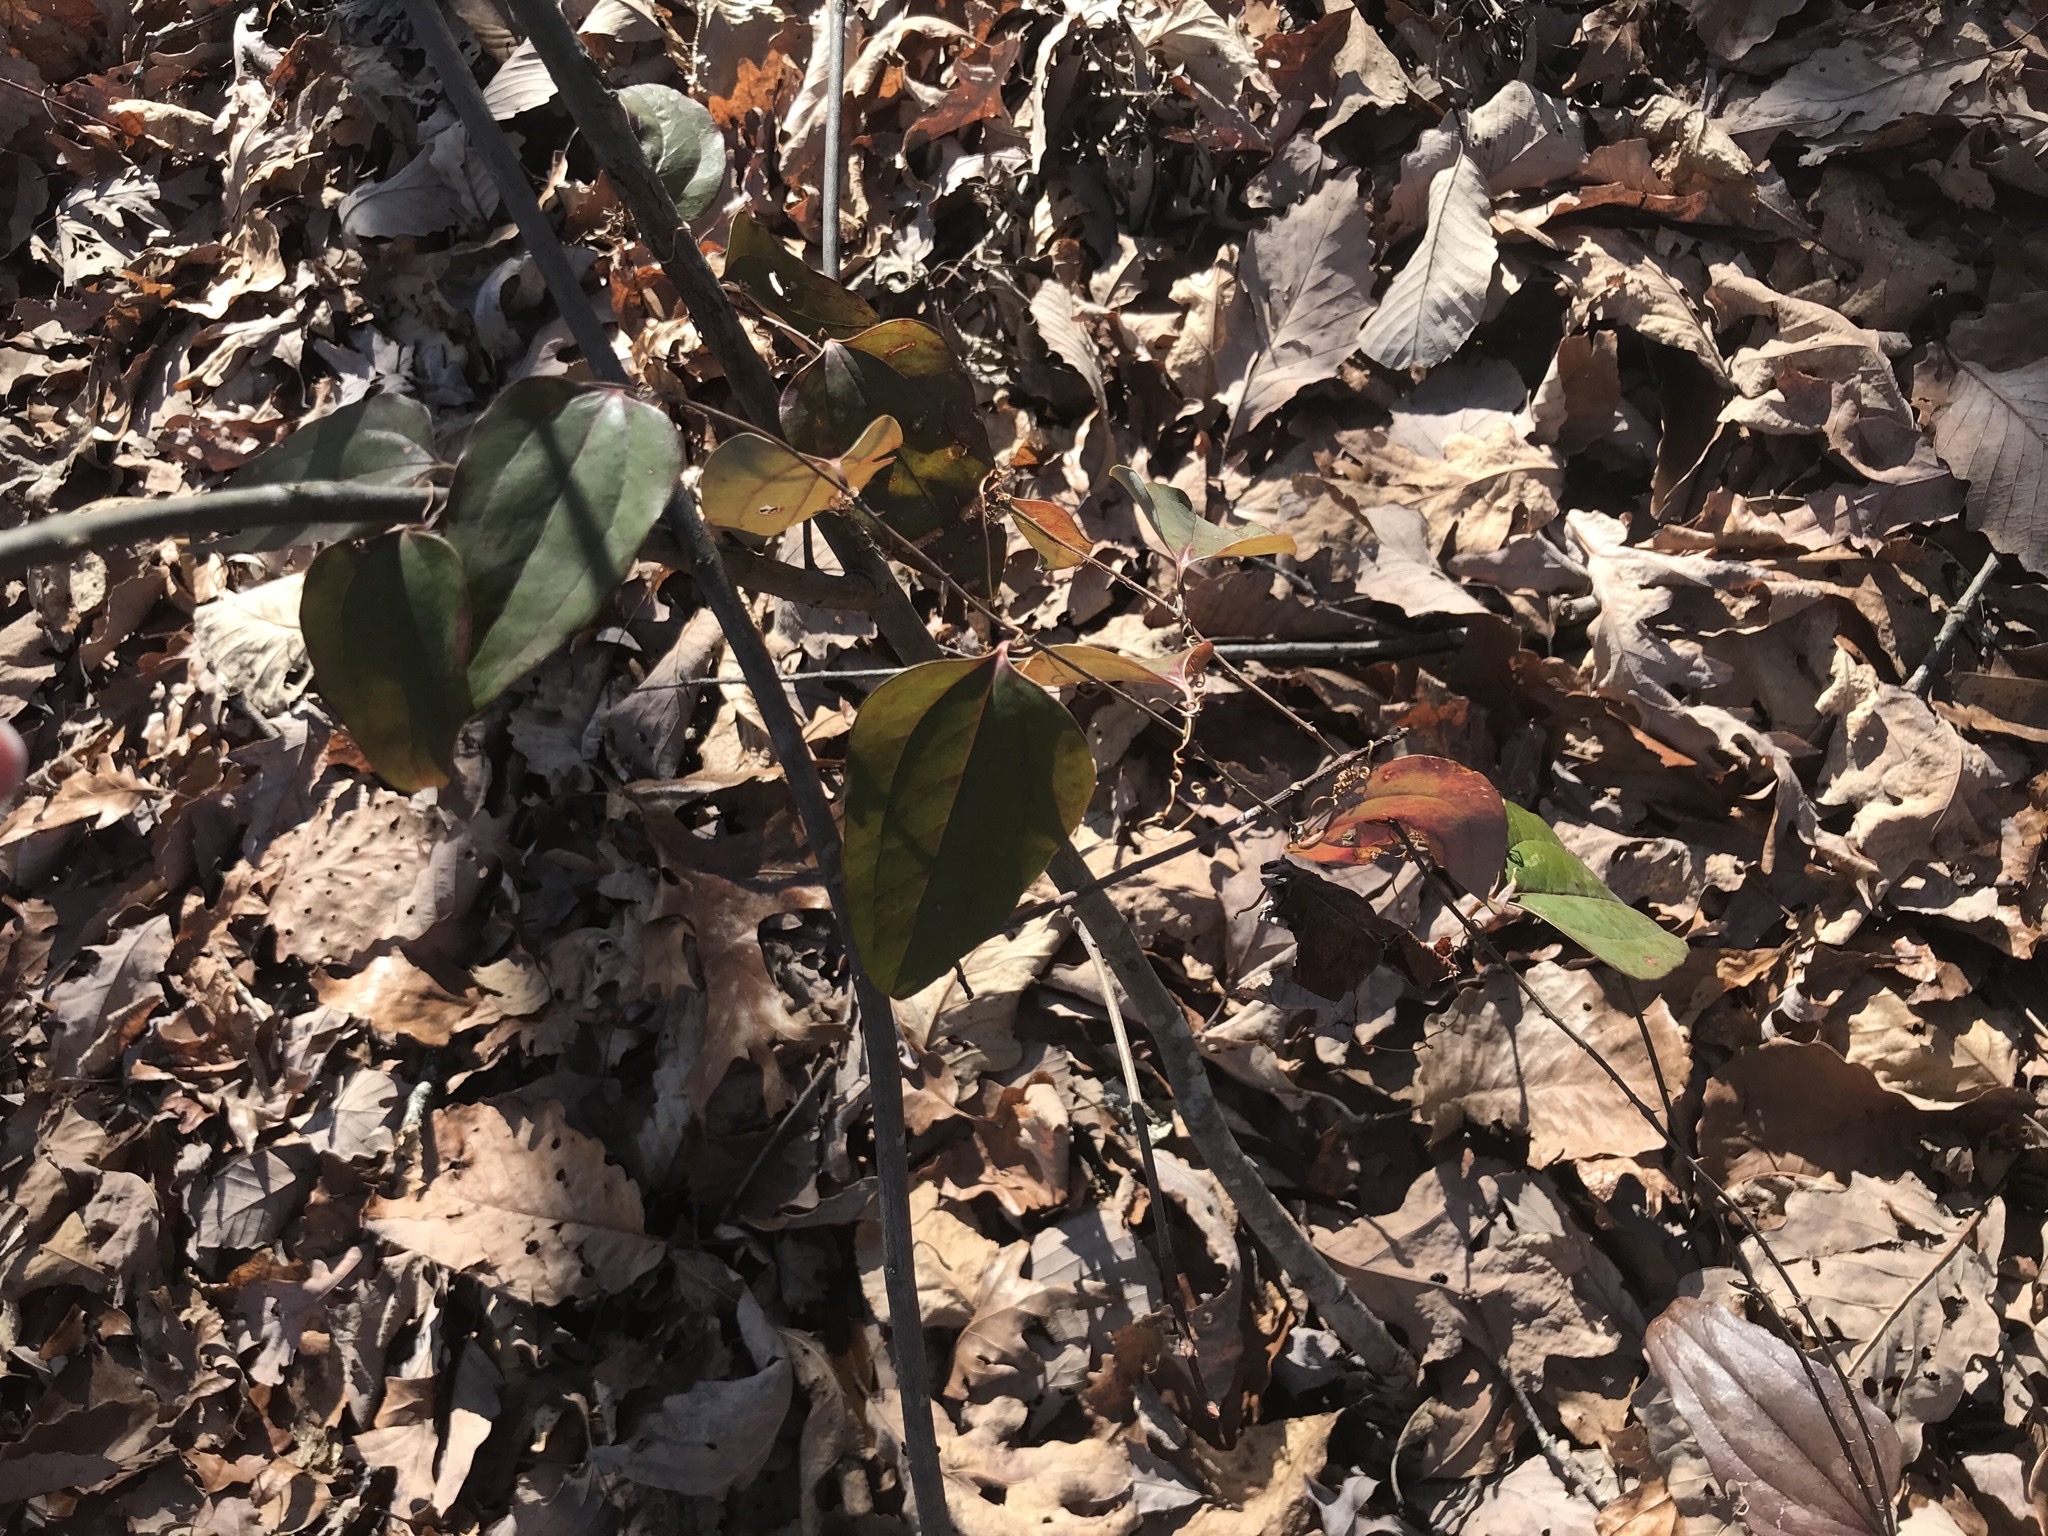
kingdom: Plantae
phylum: Tracheophyta
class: Liliopsida
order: Liliales
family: Smilacaceae
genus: Smilax
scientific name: Smilax glauca
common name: Cat greenbrier
